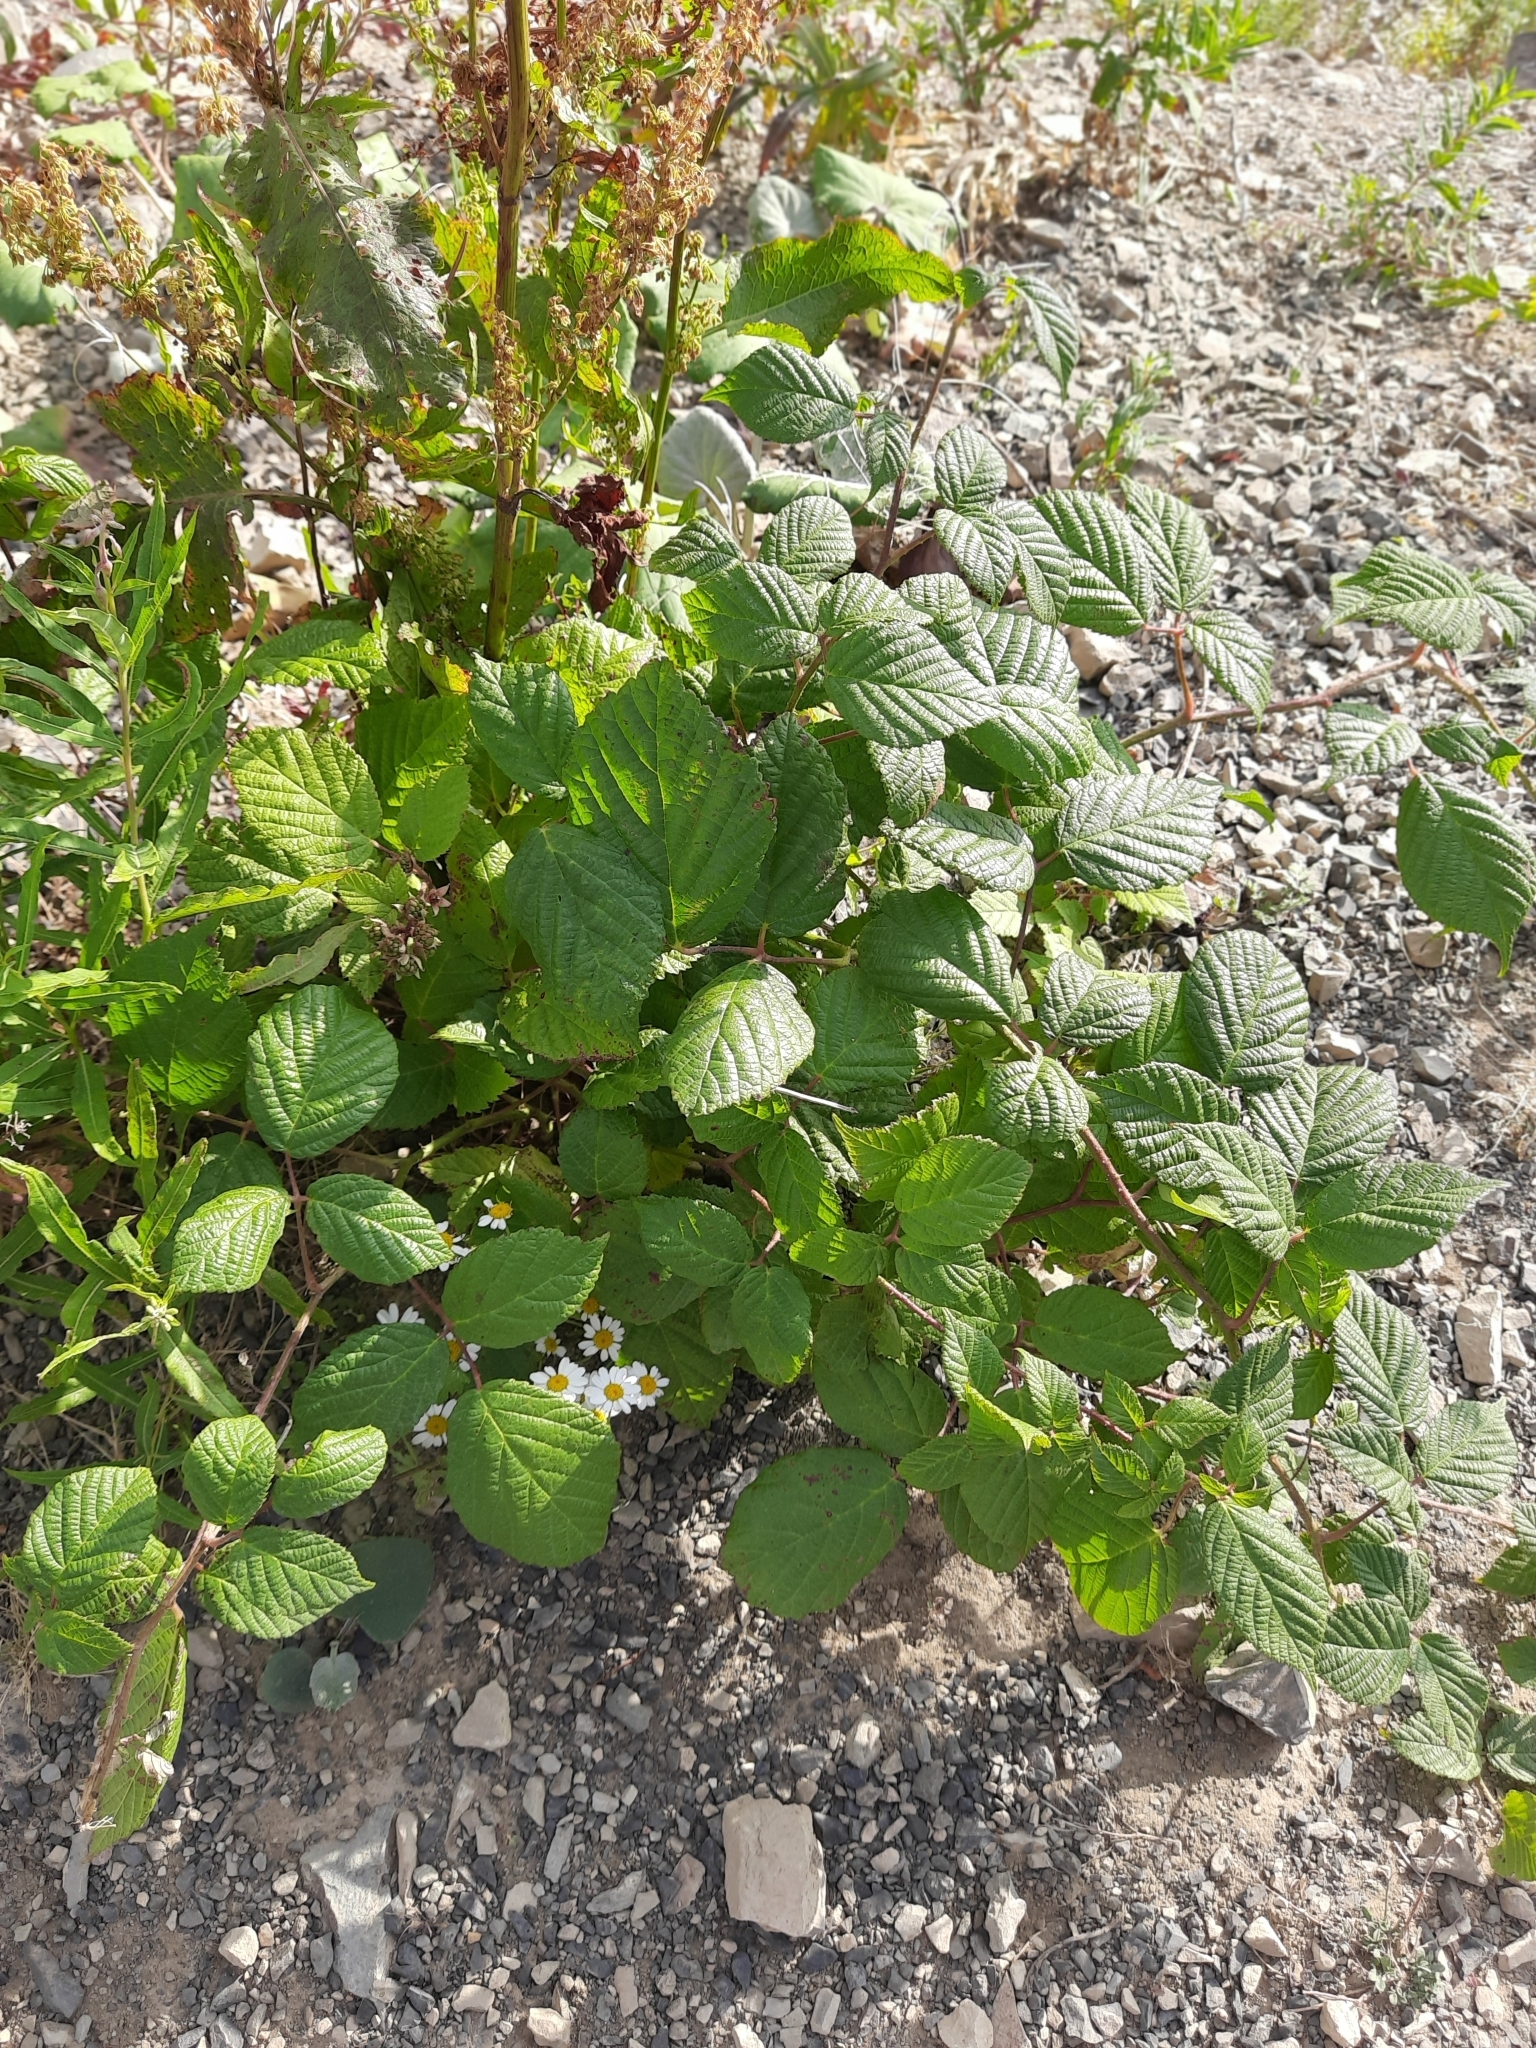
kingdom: Plantae
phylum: Tracheophyta
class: Magnoliopsida
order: Rosales
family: Rosaceae
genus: Rubus
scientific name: Rubus sanctus
